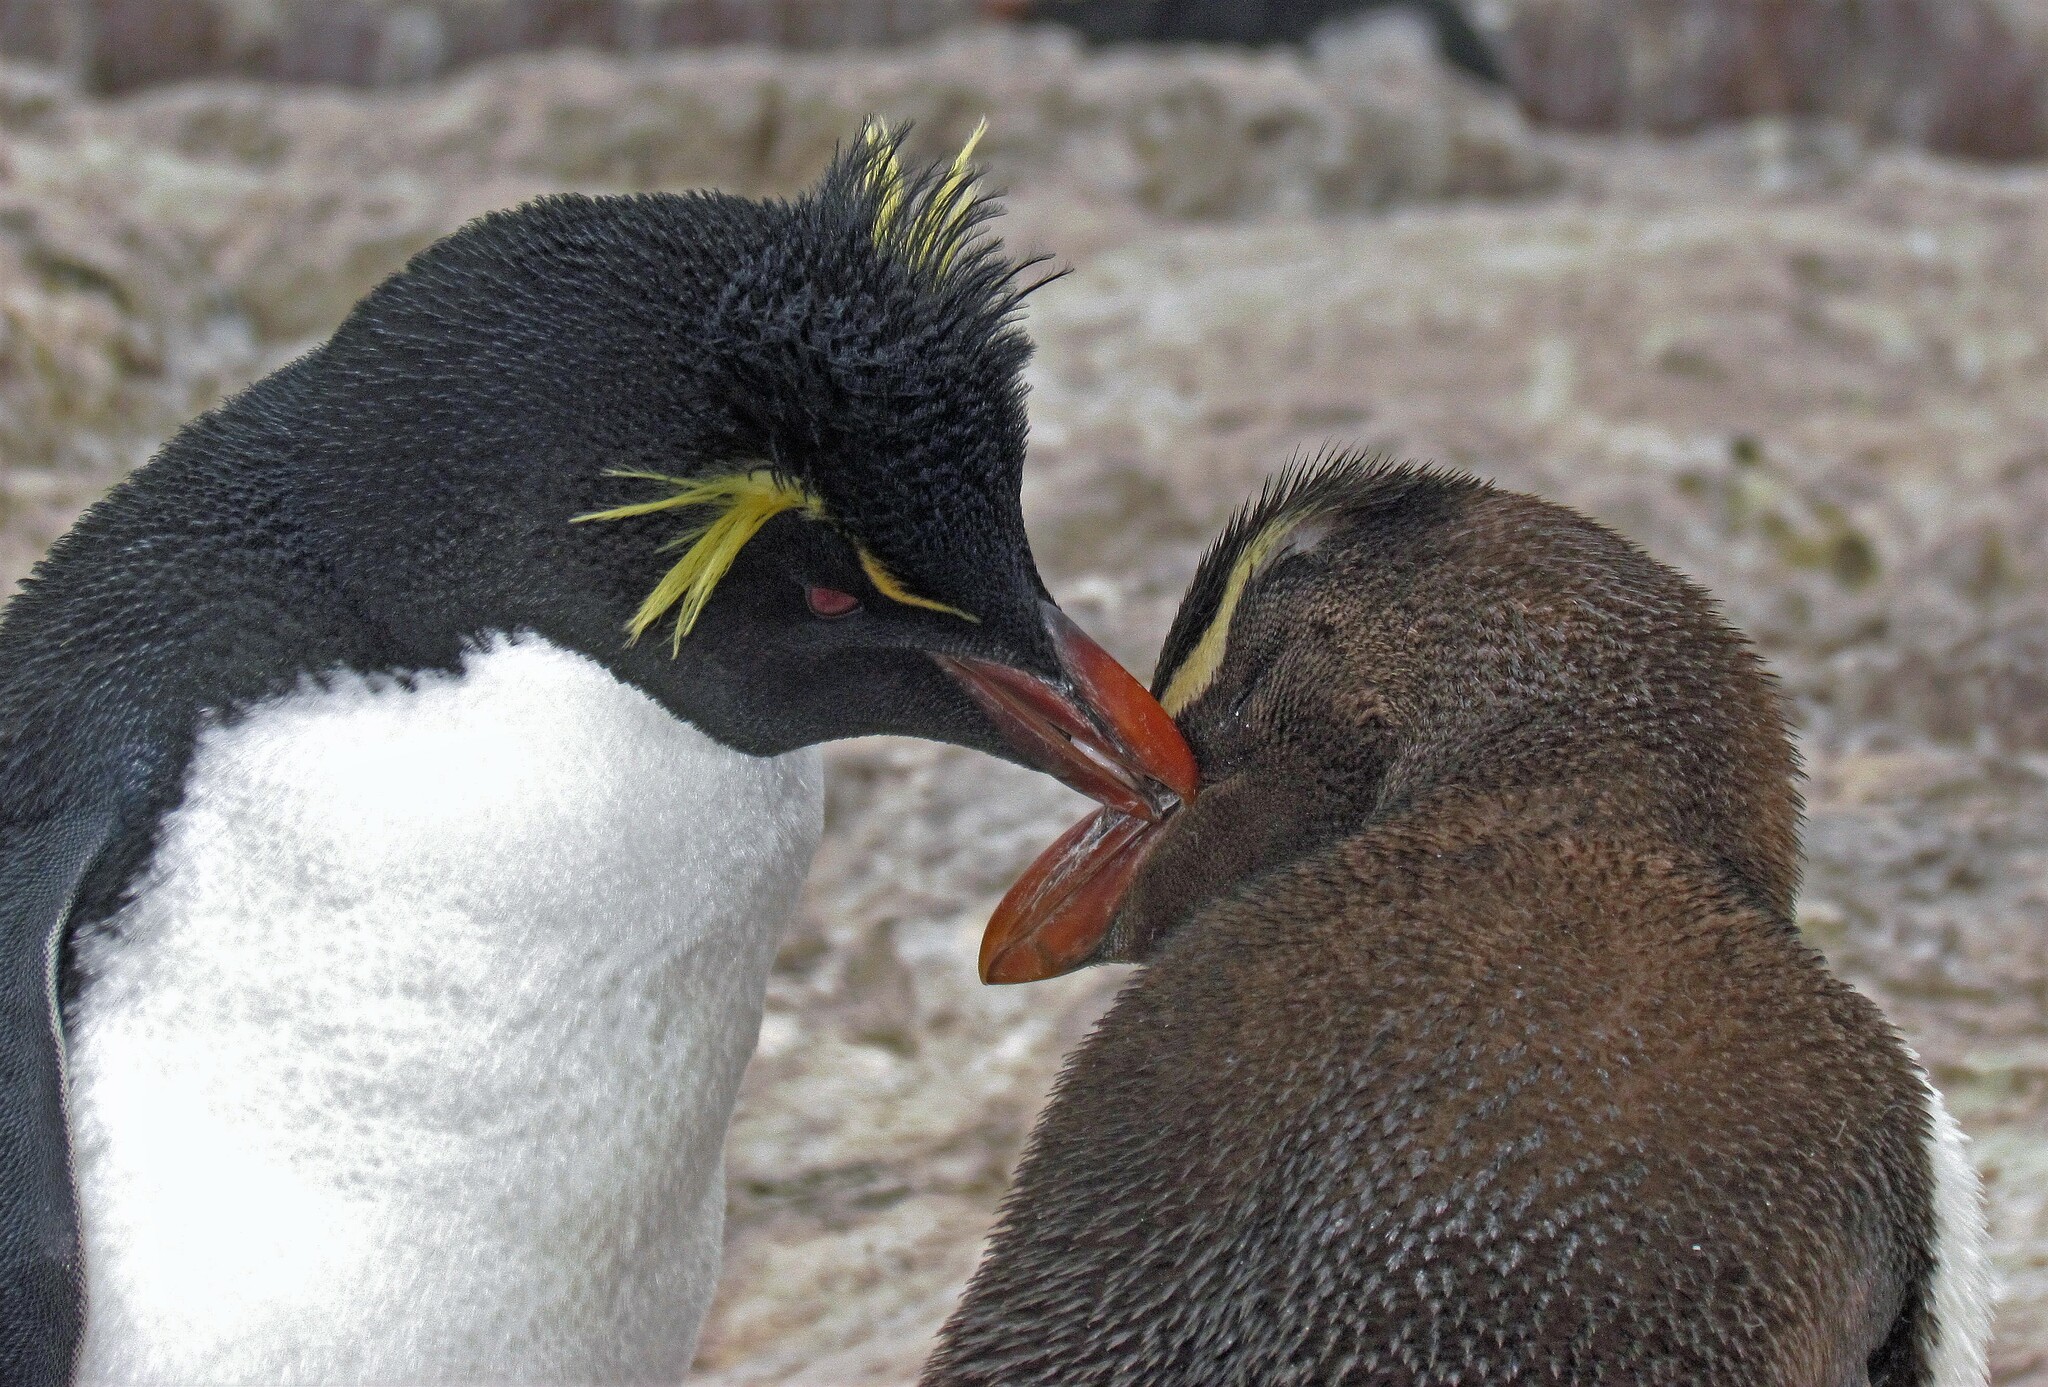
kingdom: Animalia
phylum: Chordata
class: Aves
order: Sphenisciformes
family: Spheniscidae
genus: Eudyptes
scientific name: Eudyptes chrysocome
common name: Southern rockhopper penguin
